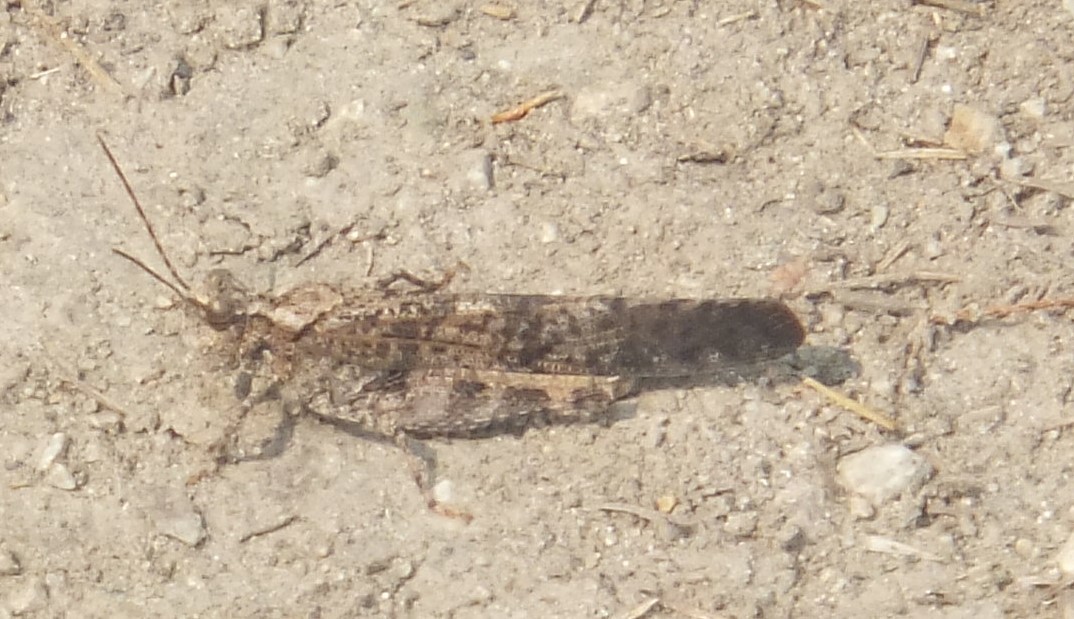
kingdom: Animalia
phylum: Arthropoda
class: Insecta
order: Orthoptera
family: Acrididae
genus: Trimerotropis
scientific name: Trimerotropis verruculata
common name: Crackling forest grasshopper
